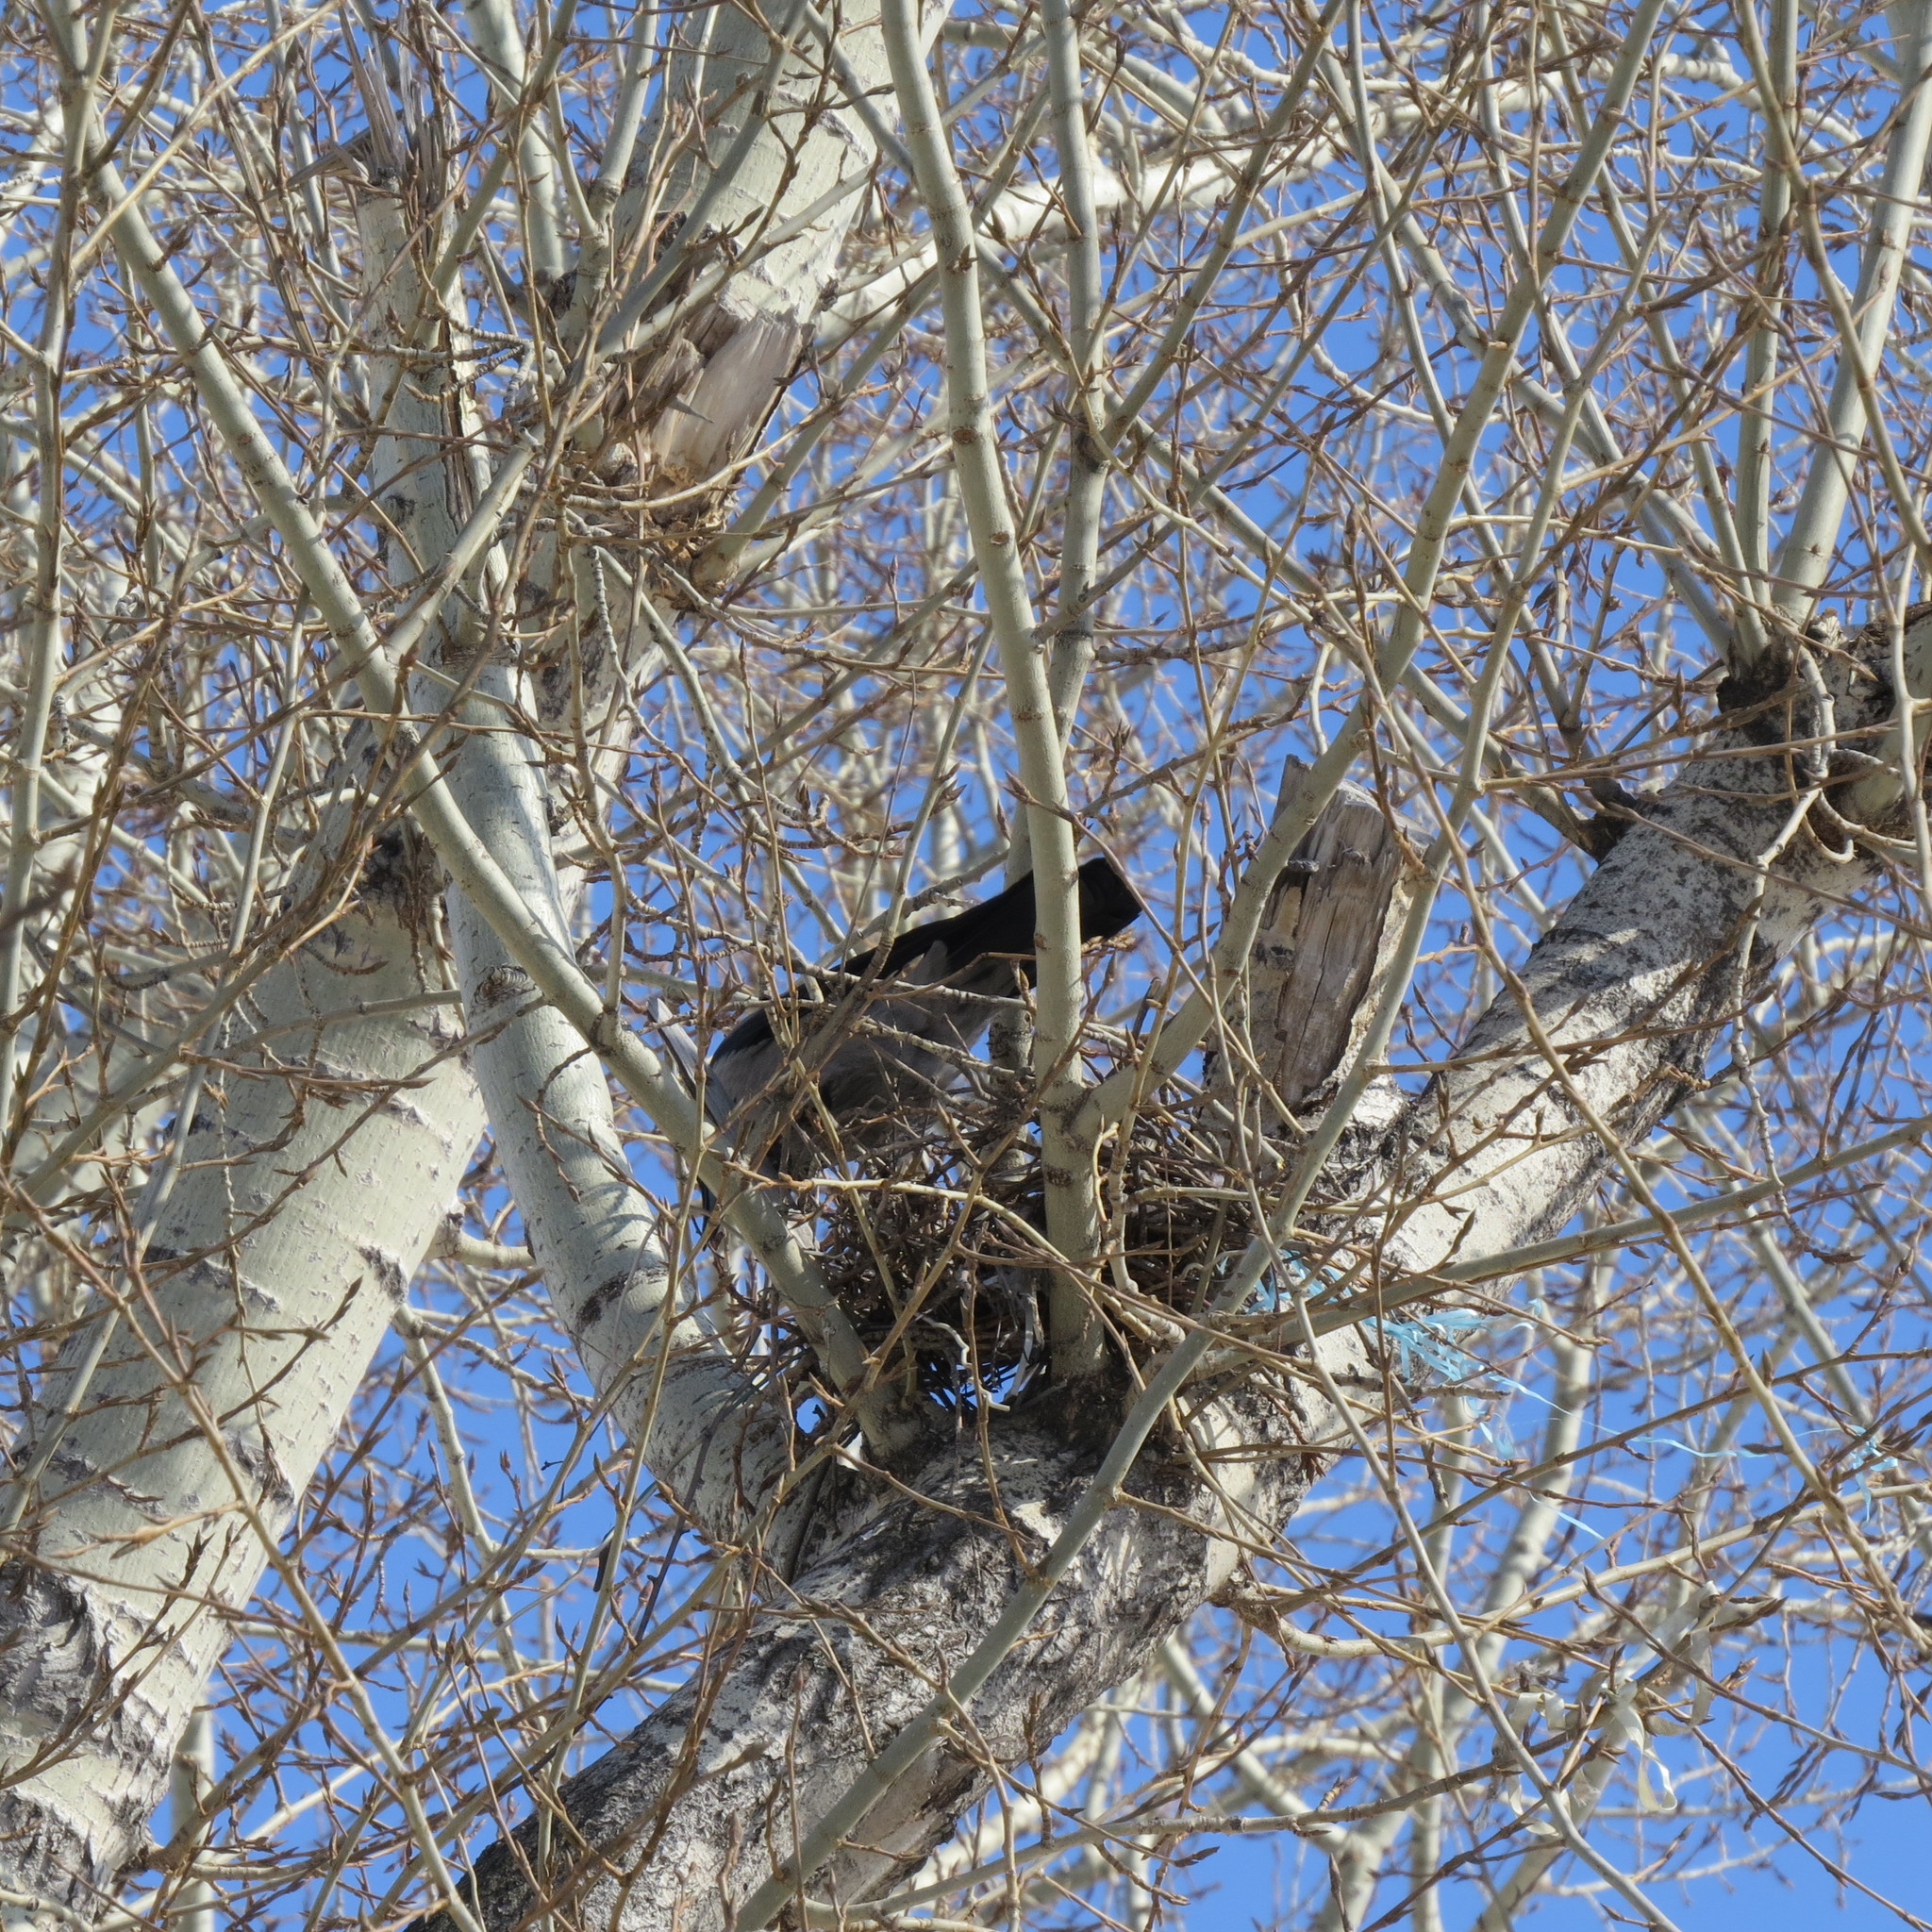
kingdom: Animalia
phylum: Chordata
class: Aves
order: Passeriformes
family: Corvidae
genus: Corvus
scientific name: Corvus cornix
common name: Hooded crow
